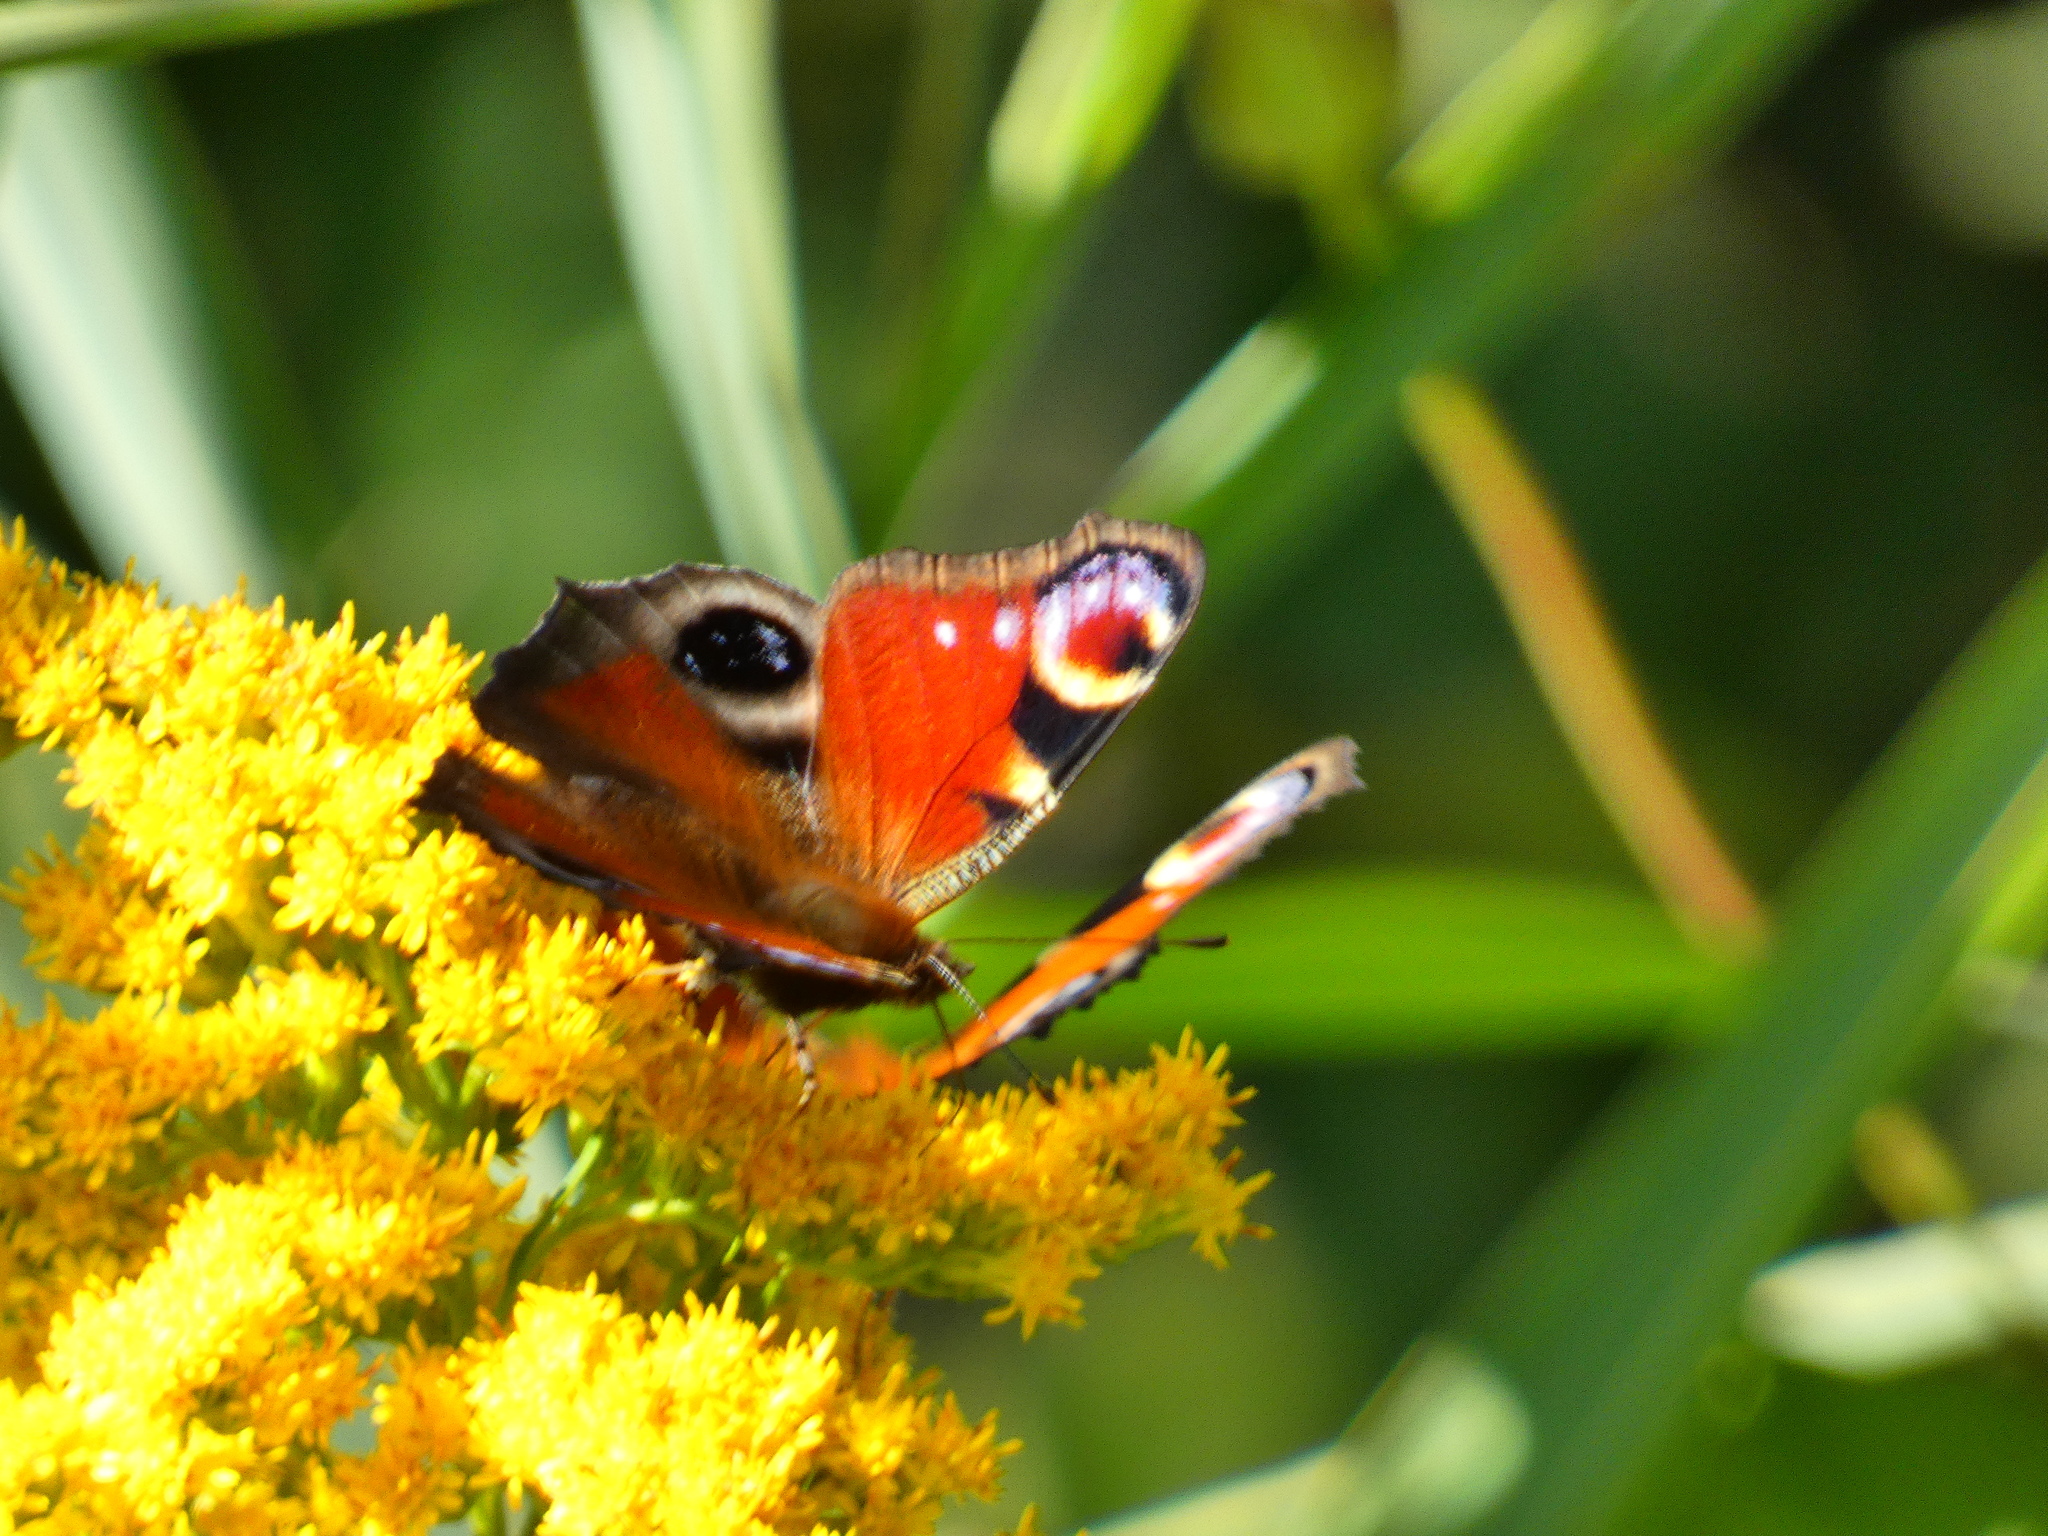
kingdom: Animalia
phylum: Arthropoda
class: Insecta
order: Lepidoptera
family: Nymphalidae
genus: Aglais
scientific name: Aglais io
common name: Peacock
